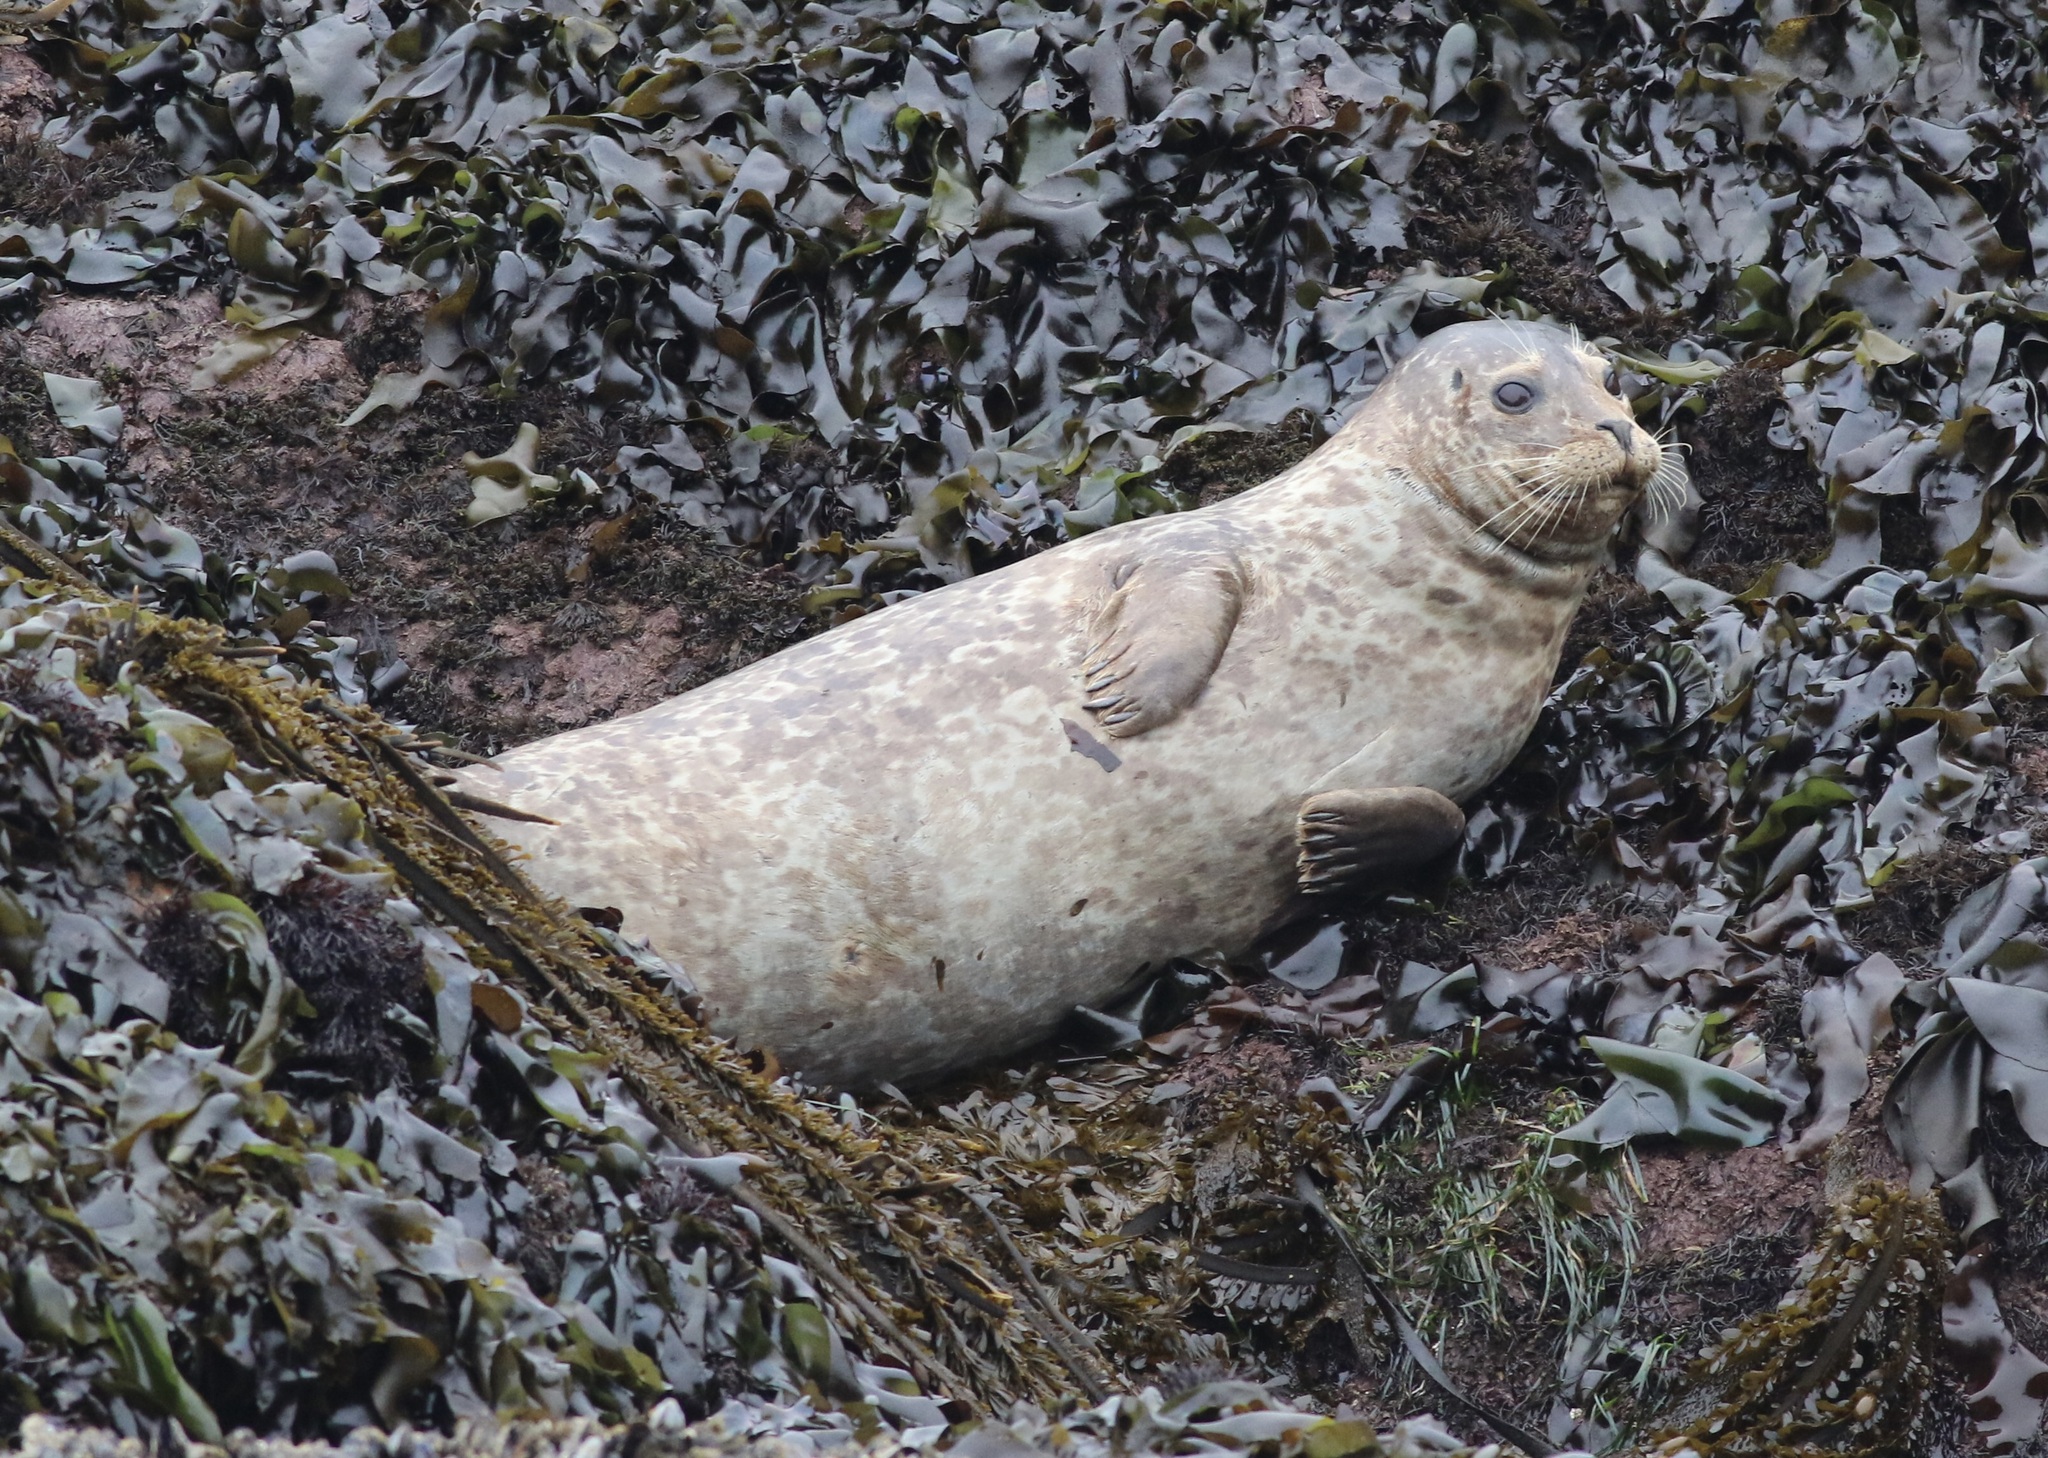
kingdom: Animalia
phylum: Chordata
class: Mammalia
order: Carnivora
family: Phocidae
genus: Phoca
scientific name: Phoca vitulina
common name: Harbor seal
